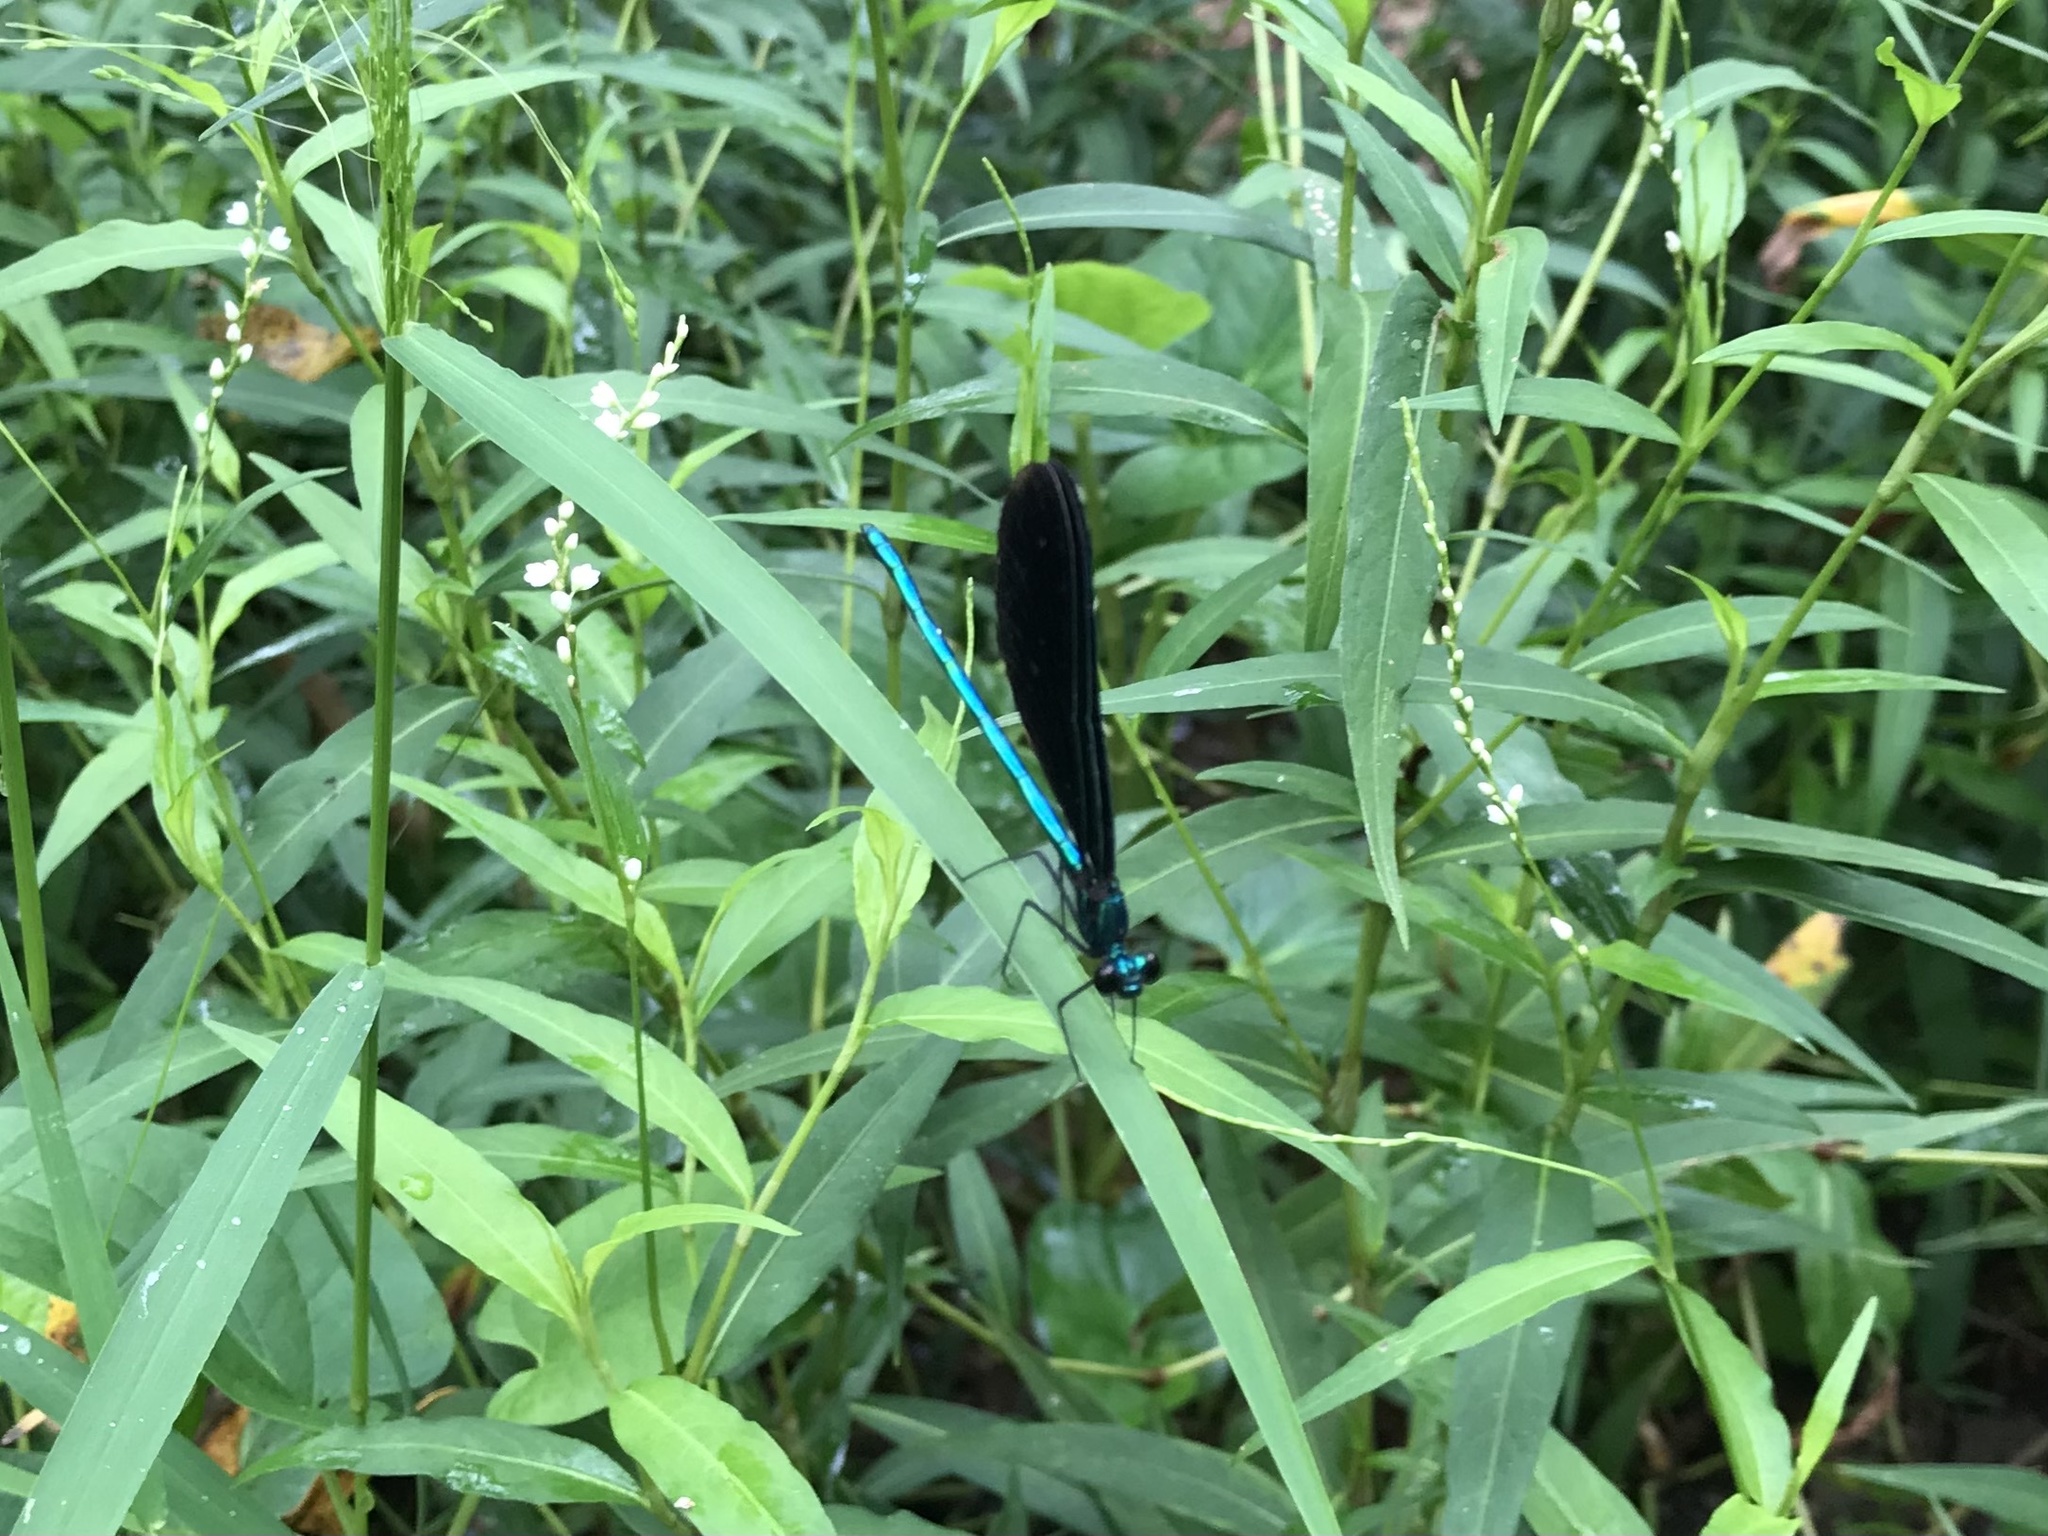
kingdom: Animalia
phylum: Arthropoda
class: Insecta
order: Odonata
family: Calopterygidae
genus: Calopteryx
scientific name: Calopteryx maculata
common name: Ebony jewelwing
